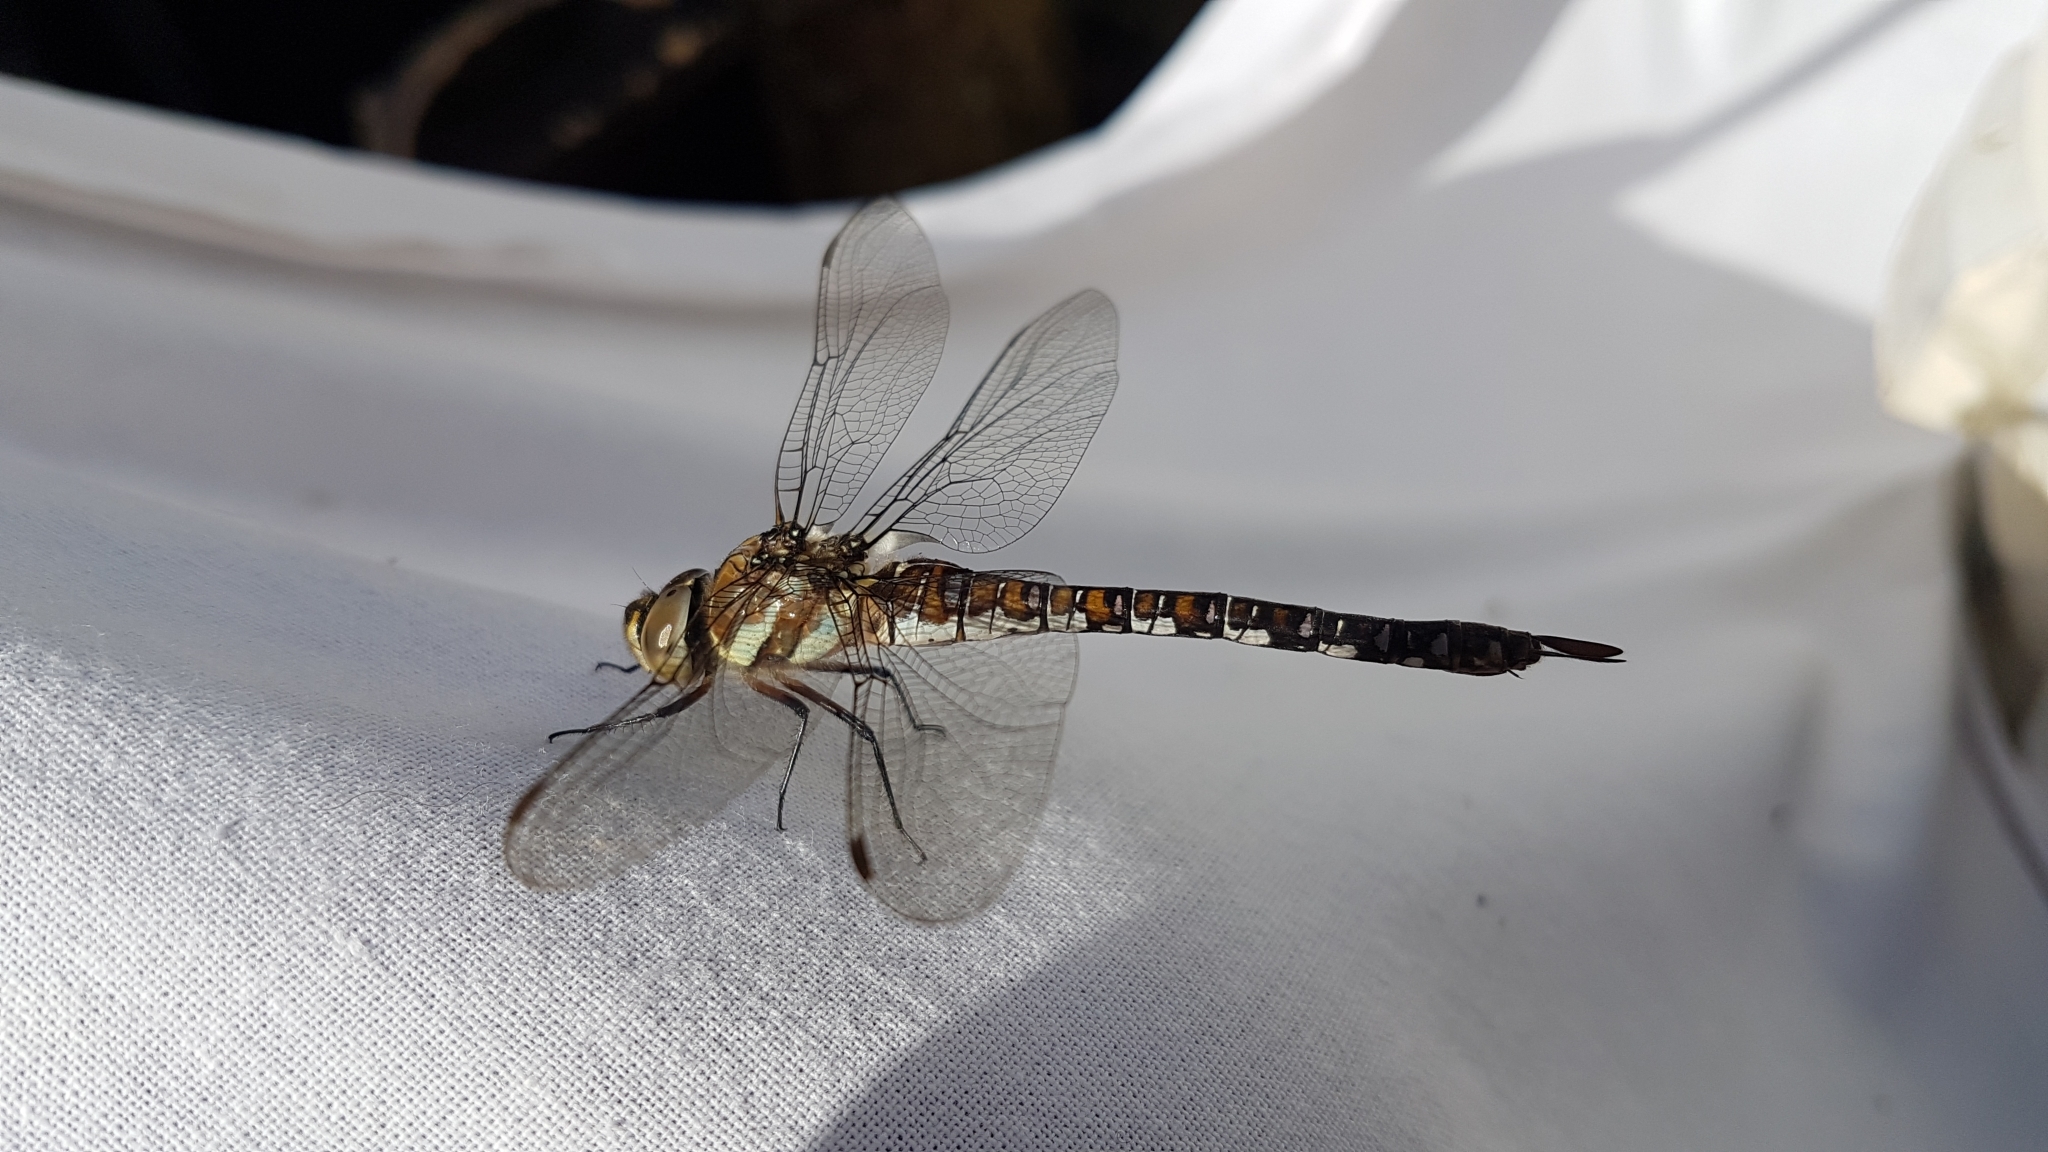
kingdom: Animalia
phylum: Arthropoda
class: Insecta
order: Odonata
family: Aeshnidae
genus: Aeshna
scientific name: Aeshna mixta
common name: Migrant hawker
